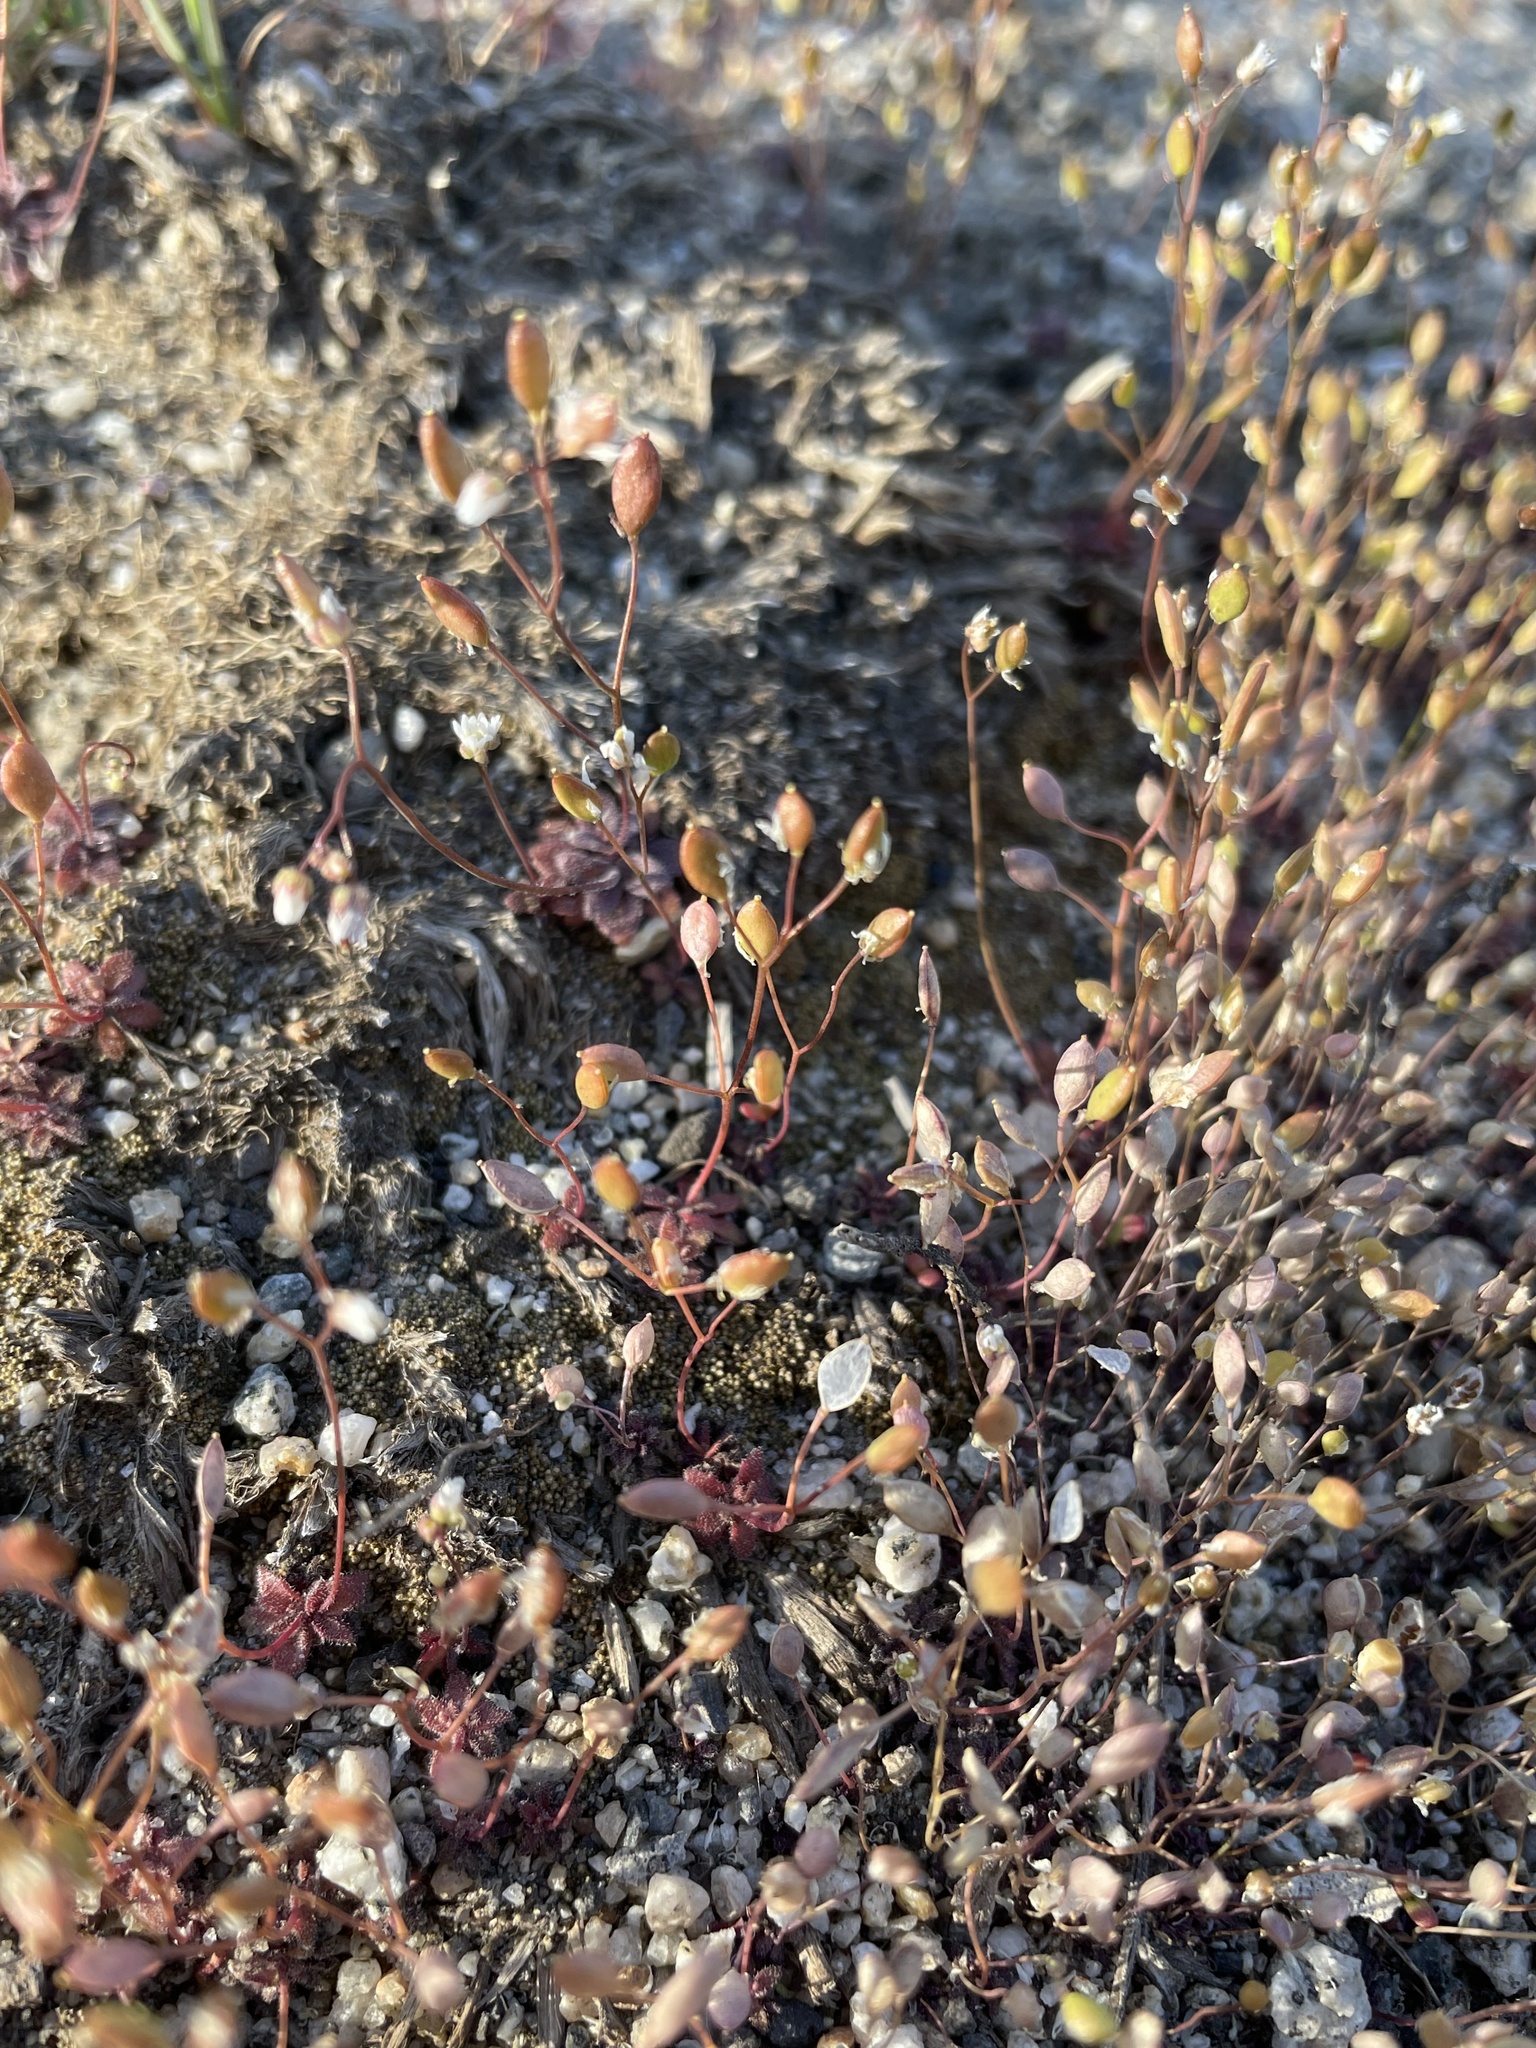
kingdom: Plantae
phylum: Tracheophyta
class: Magnoliopsida
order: Brassicales
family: Brassicaceae
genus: Draba
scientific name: Draba verna
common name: Spring draba
